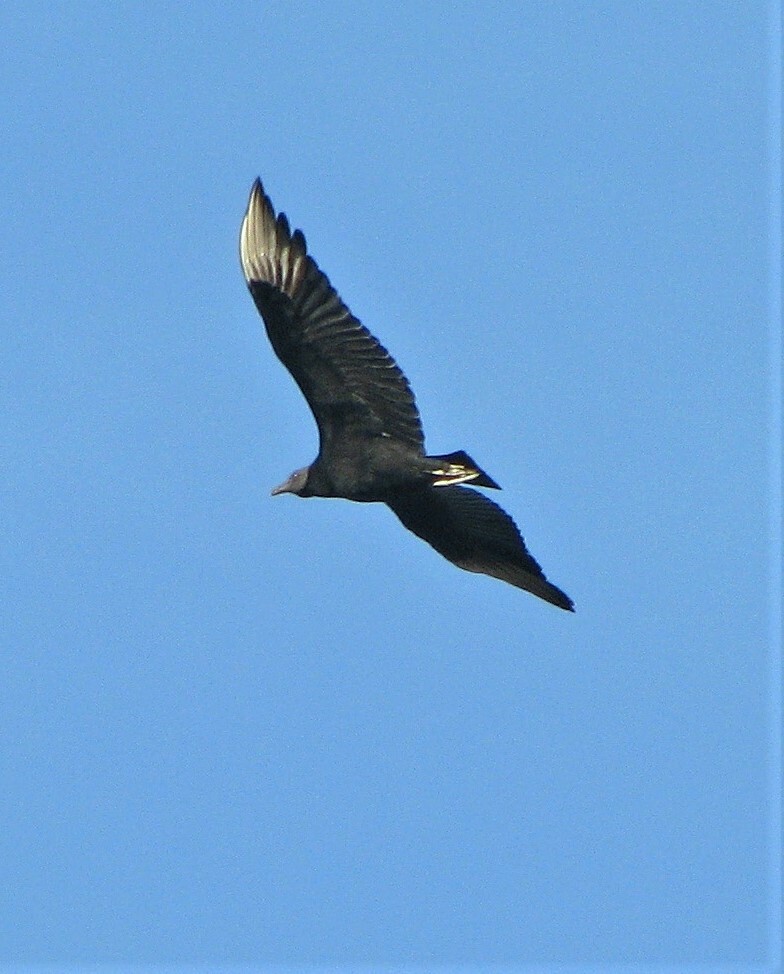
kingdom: Animalia
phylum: Chordata
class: Aves
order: Accipitriformes
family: Cathartidae
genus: Coragyps
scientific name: Coragyps atratus
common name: Black vulture
